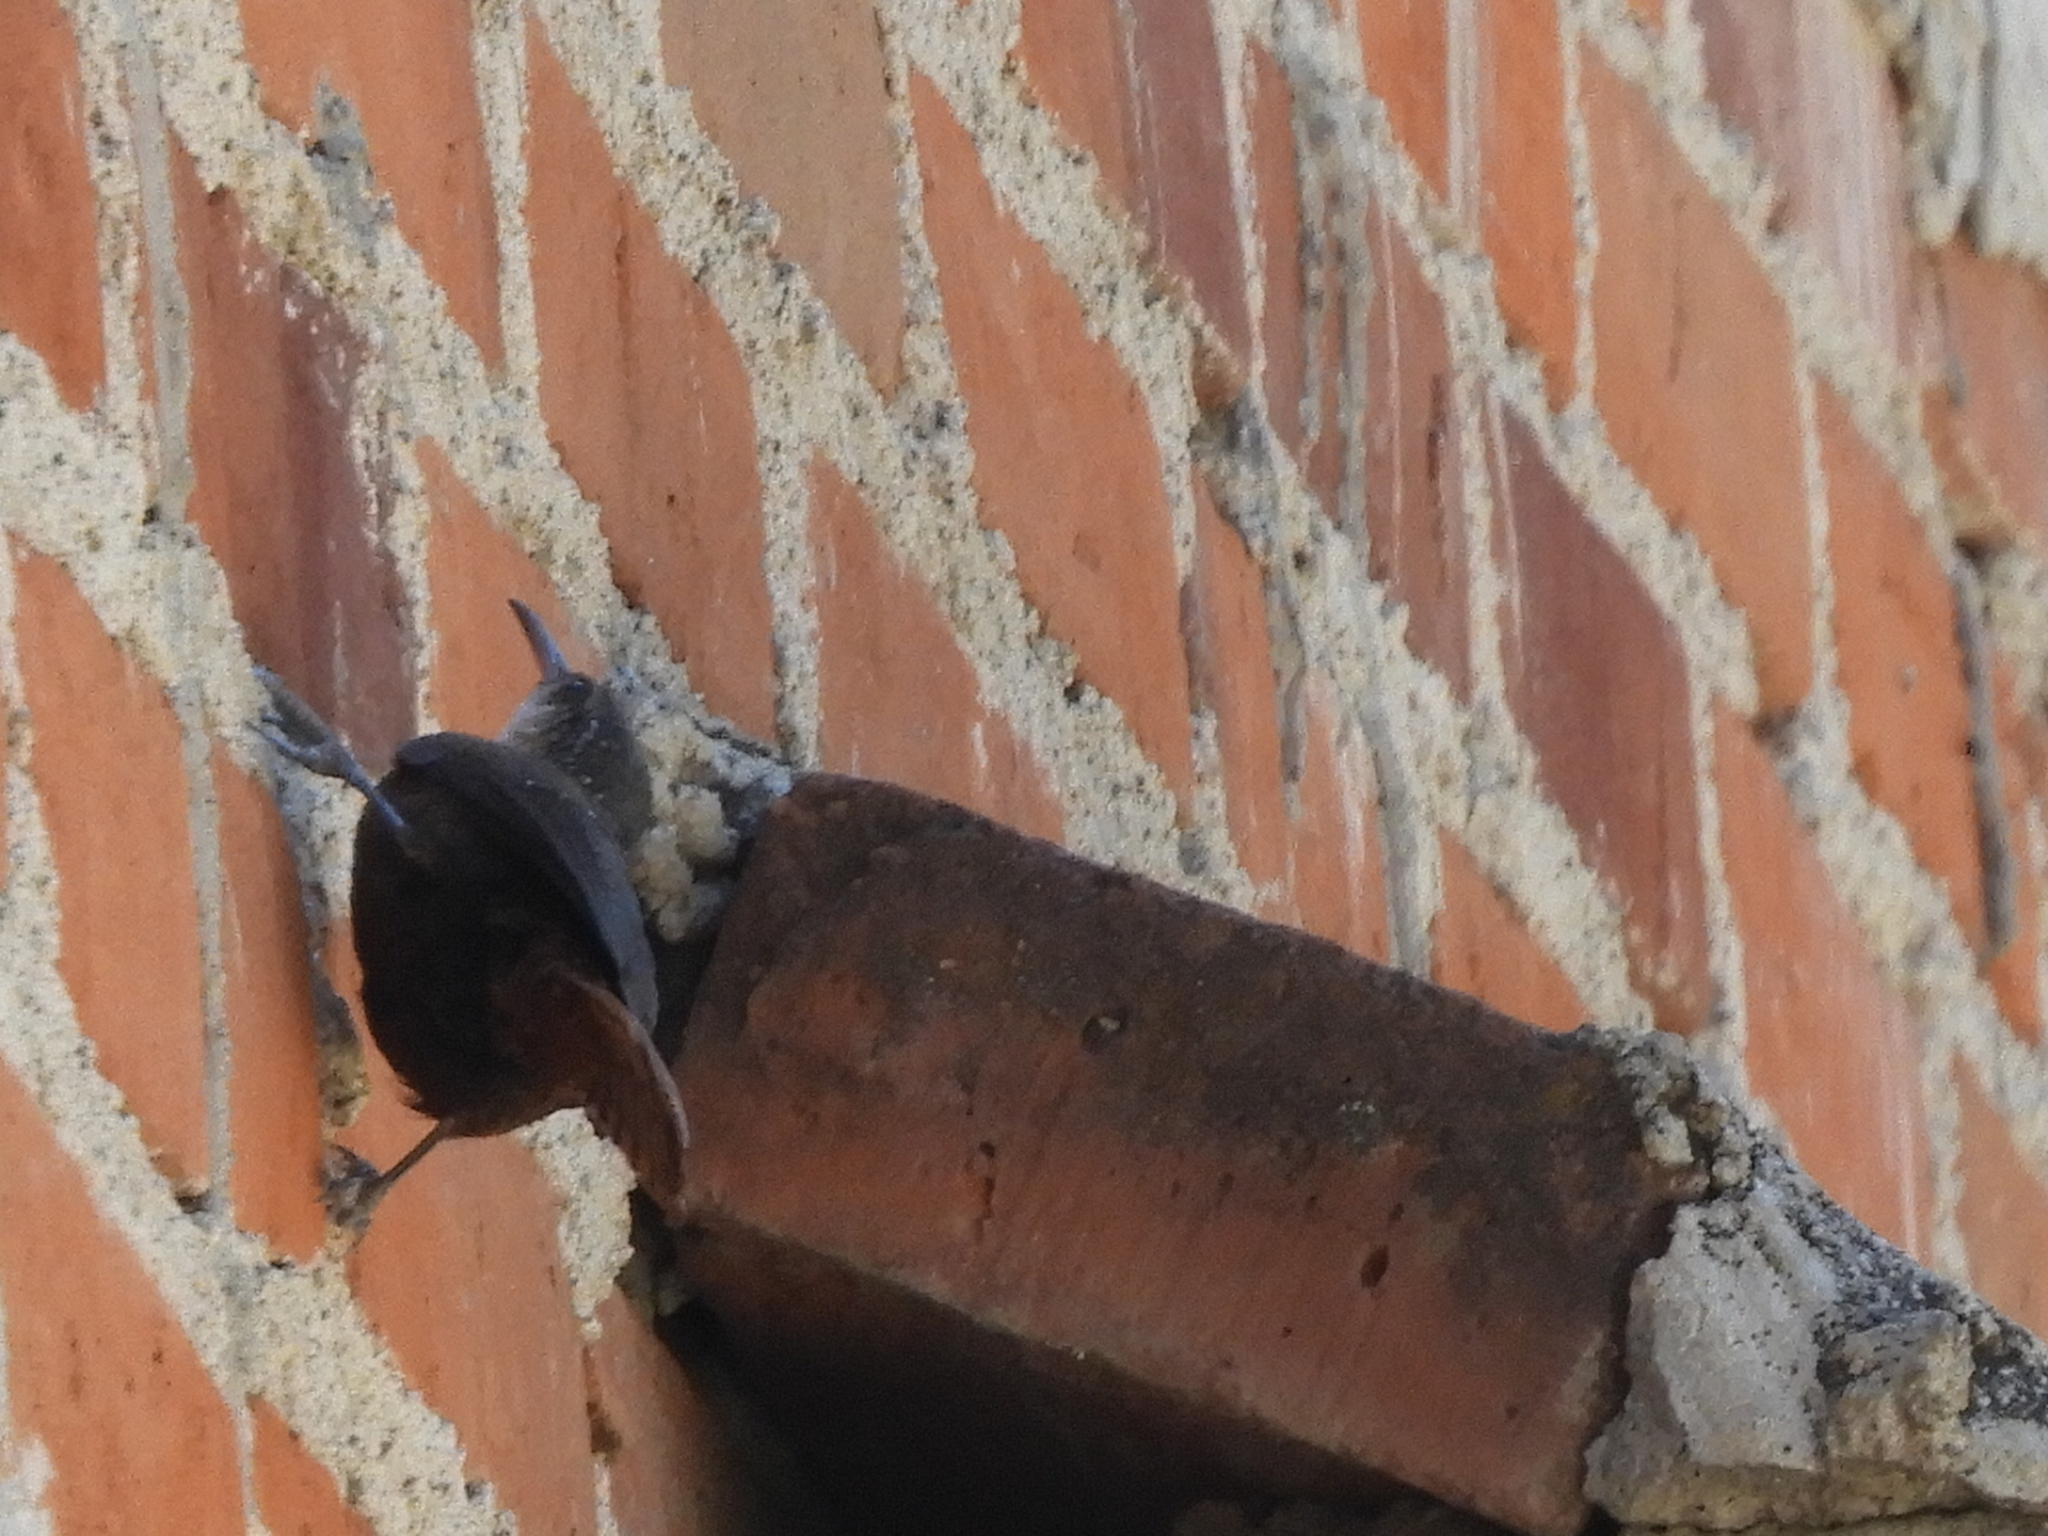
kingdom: Animalia
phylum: Chordata
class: Aves
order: Passeriformes
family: Troglodytidae
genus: Catherpes
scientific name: Catherpes mexicanus
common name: Canyon wren
